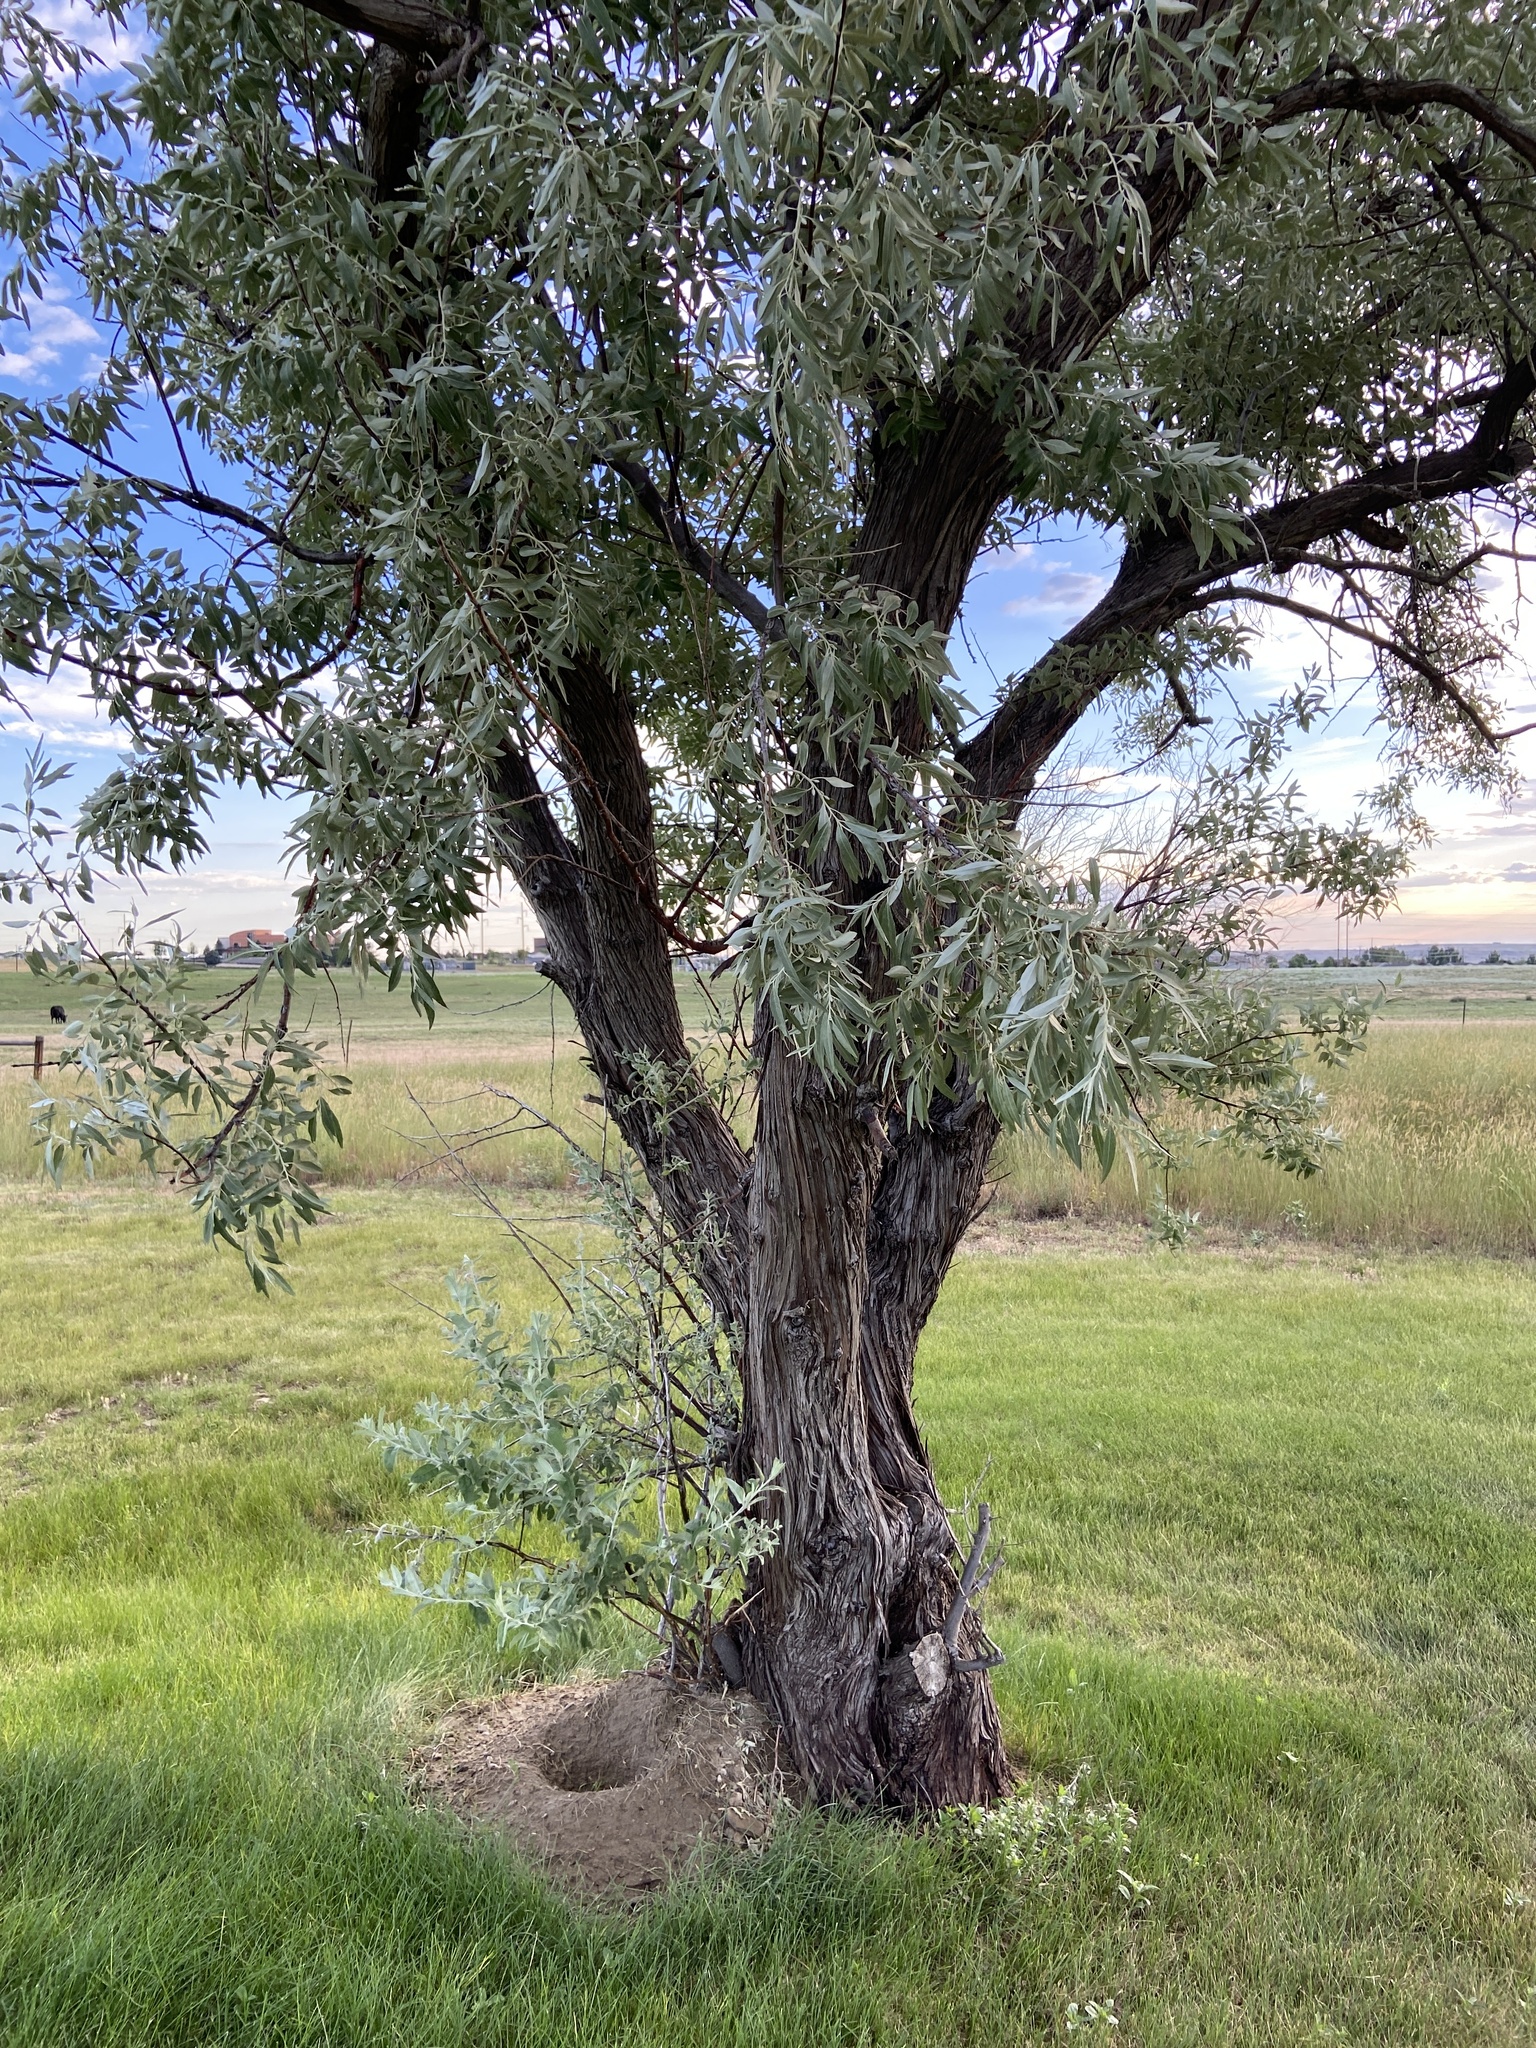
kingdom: Plantae
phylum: Tracheophyta
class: Magnoliopsida
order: Rosales
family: Elaeagnaceae
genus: Elaeagnus
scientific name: Elaeagnus angustifolia
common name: Russian olive
